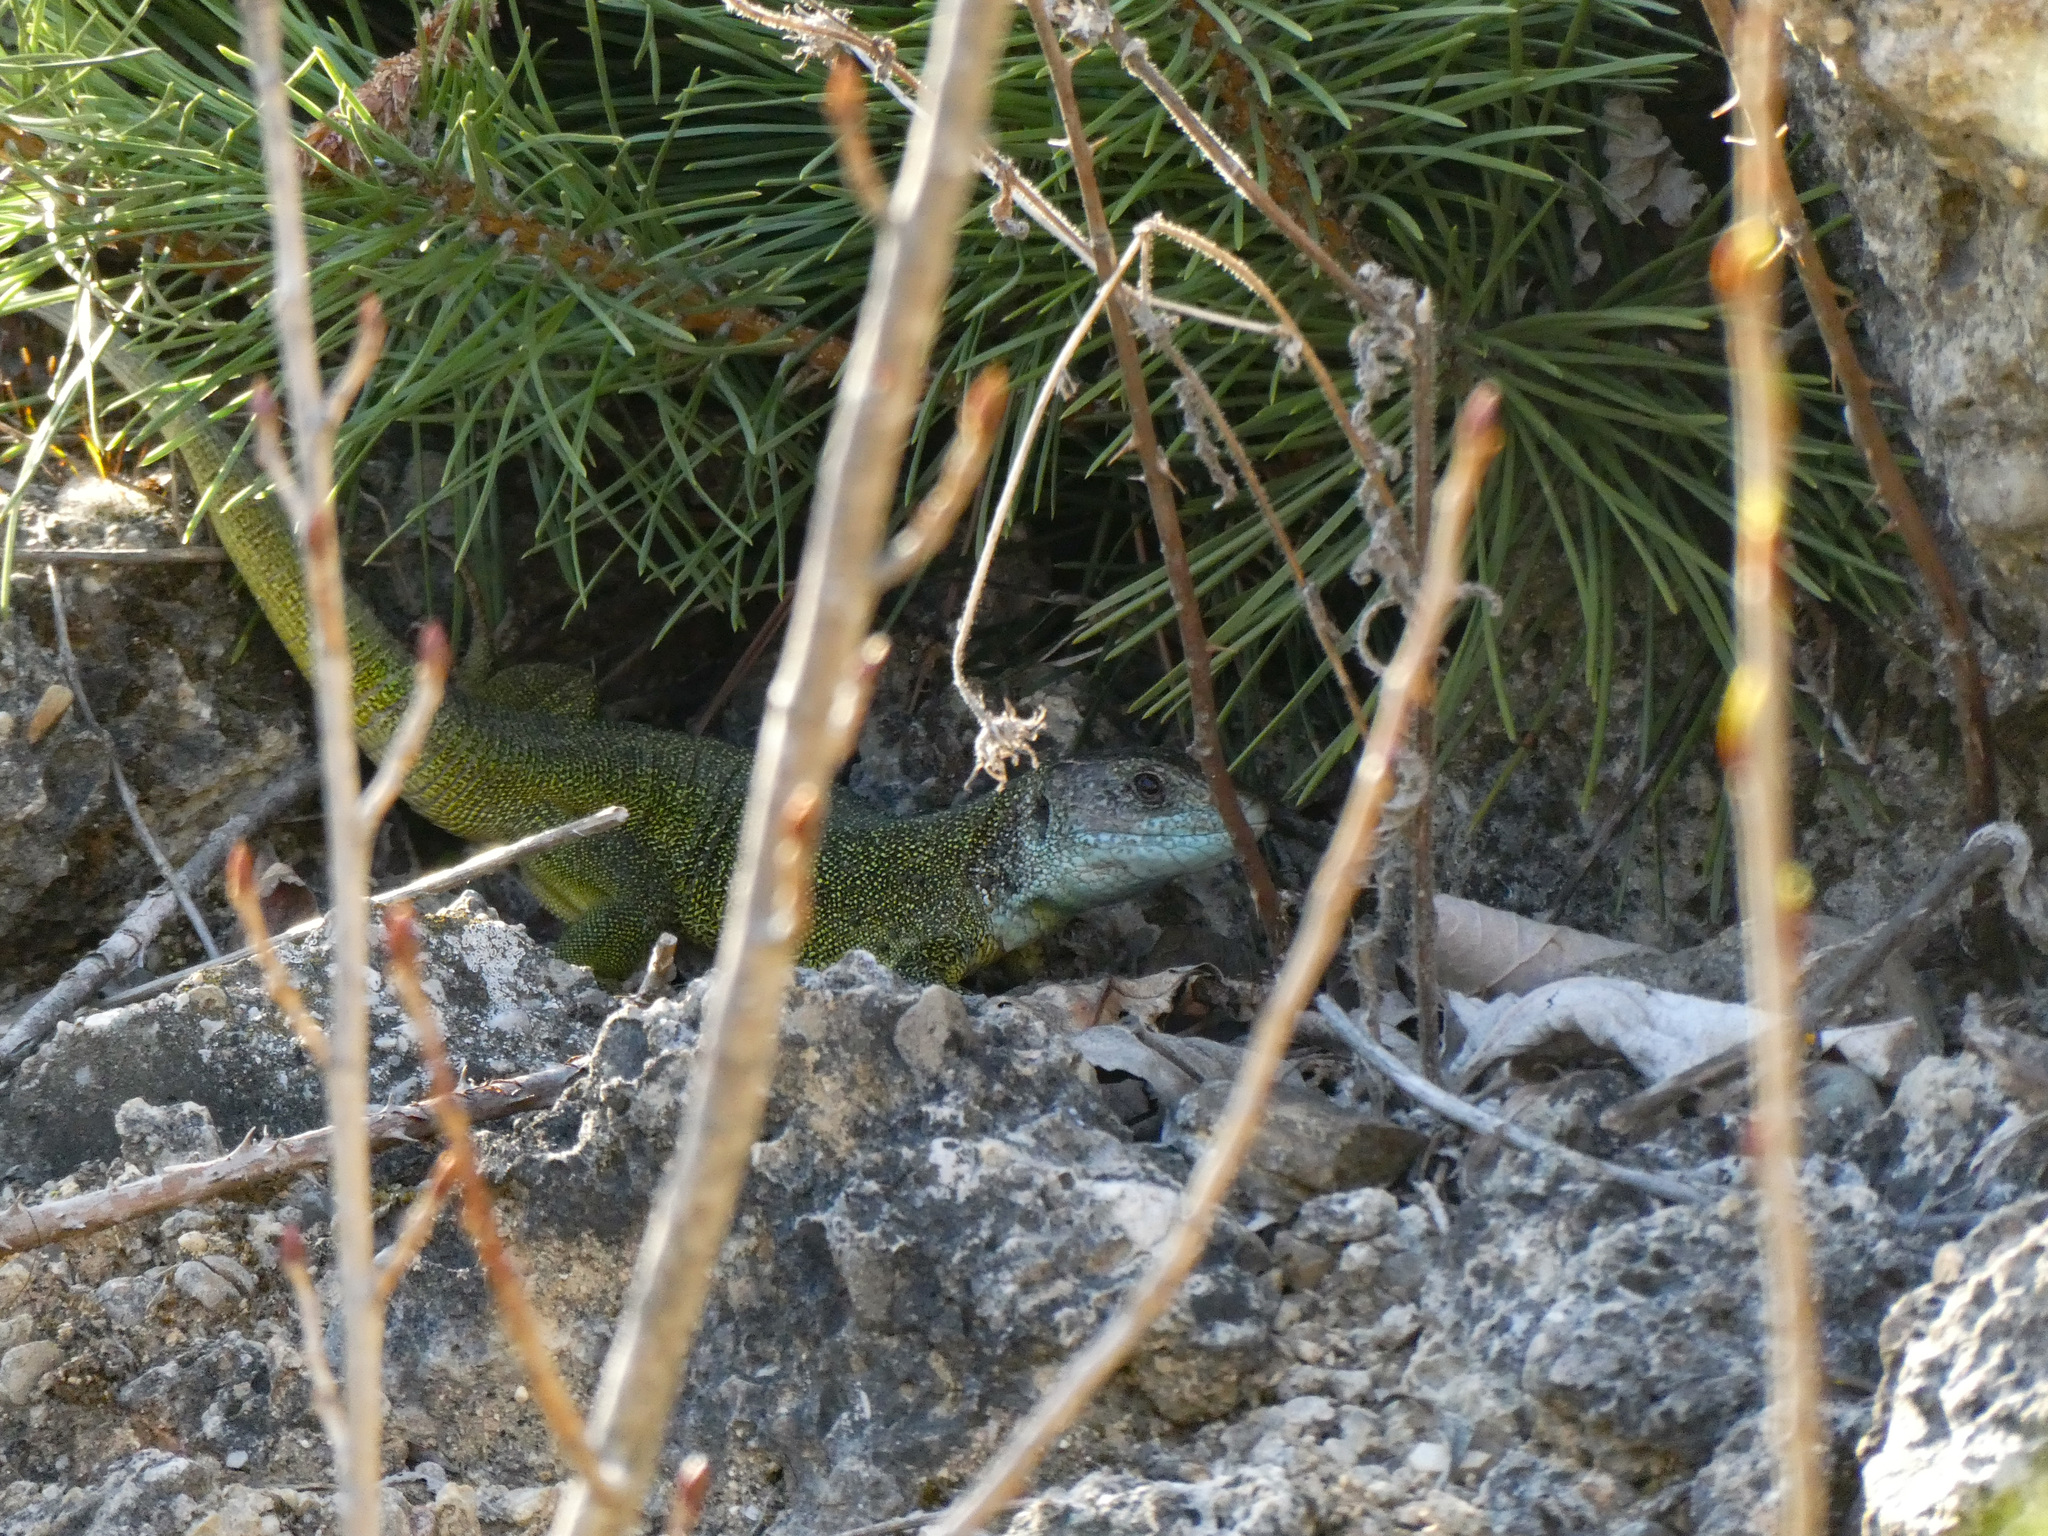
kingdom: Animalia
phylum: Chordata
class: Squamata
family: Lacertidae
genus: Lacerta
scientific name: Lacerta viridis
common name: European green lizard
